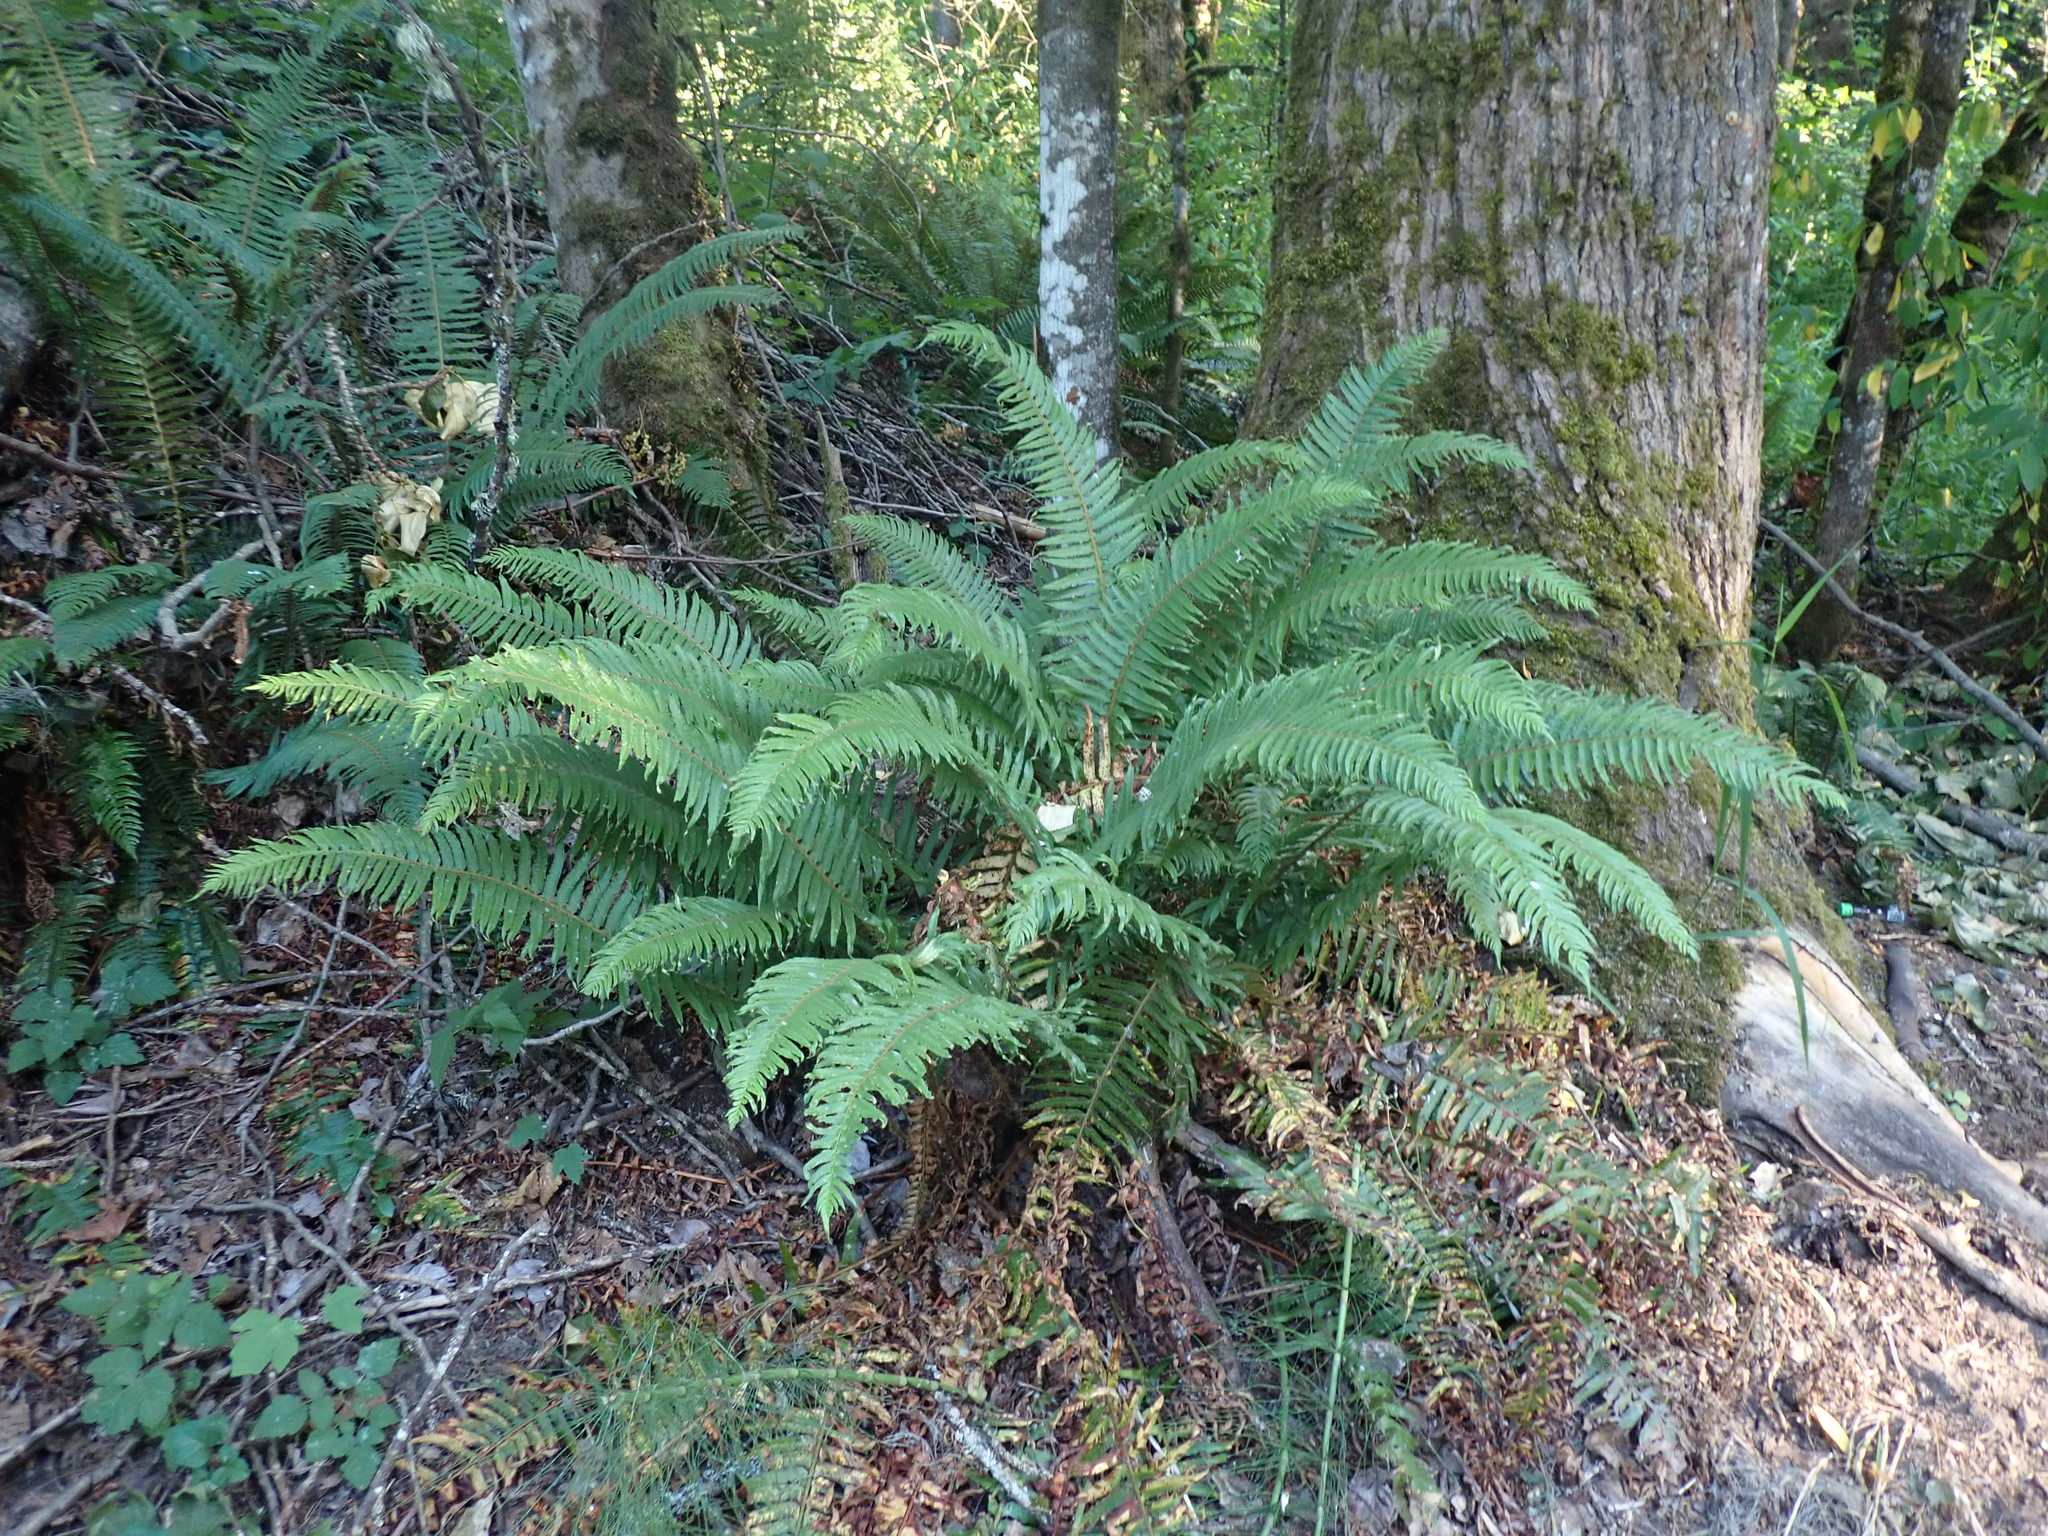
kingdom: Plantae
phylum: Tracheophyta
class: Polypodiopsida
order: Polypodiales
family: Dryopteridaceae
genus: Polystichum
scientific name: Polystichum munitum
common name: Western sword-fern
